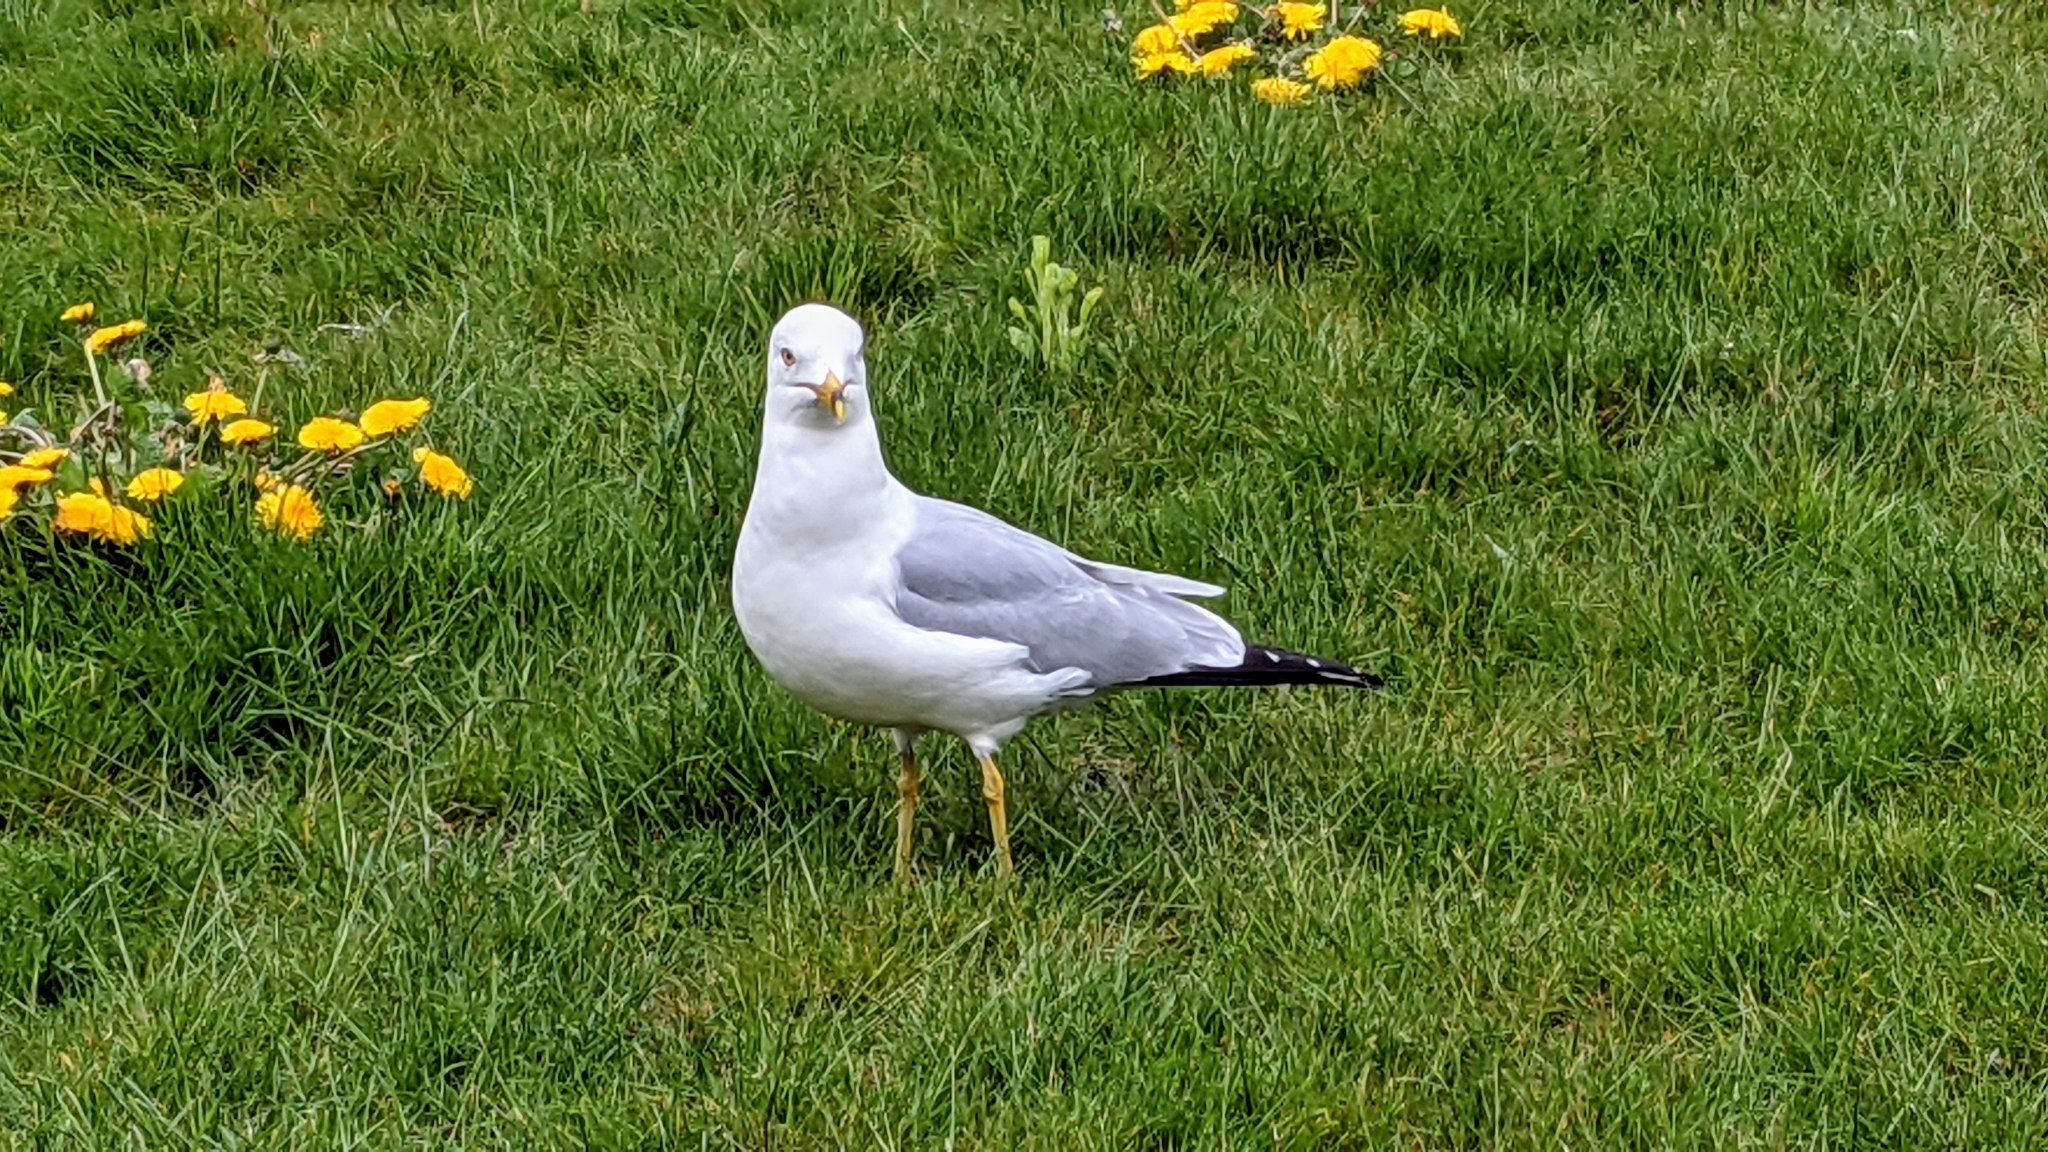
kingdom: Animalia
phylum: Chordata
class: Aves
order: Charadriiformes
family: Laridae
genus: Larus
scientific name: Larus delawarensis
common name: Ring-billed gull
